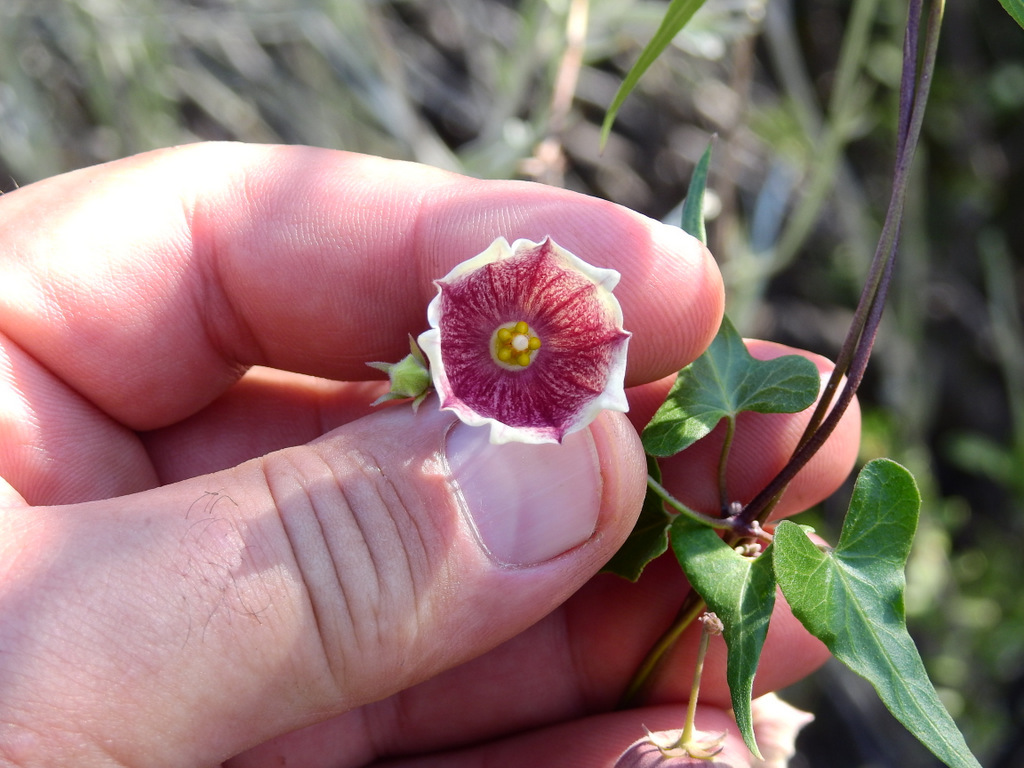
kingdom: Plantae
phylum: Tracheophyta
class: Magnoliopsida
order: Gentianales
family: Apocynaceae
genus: Philibertia
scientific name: Philibertia gilliesii
